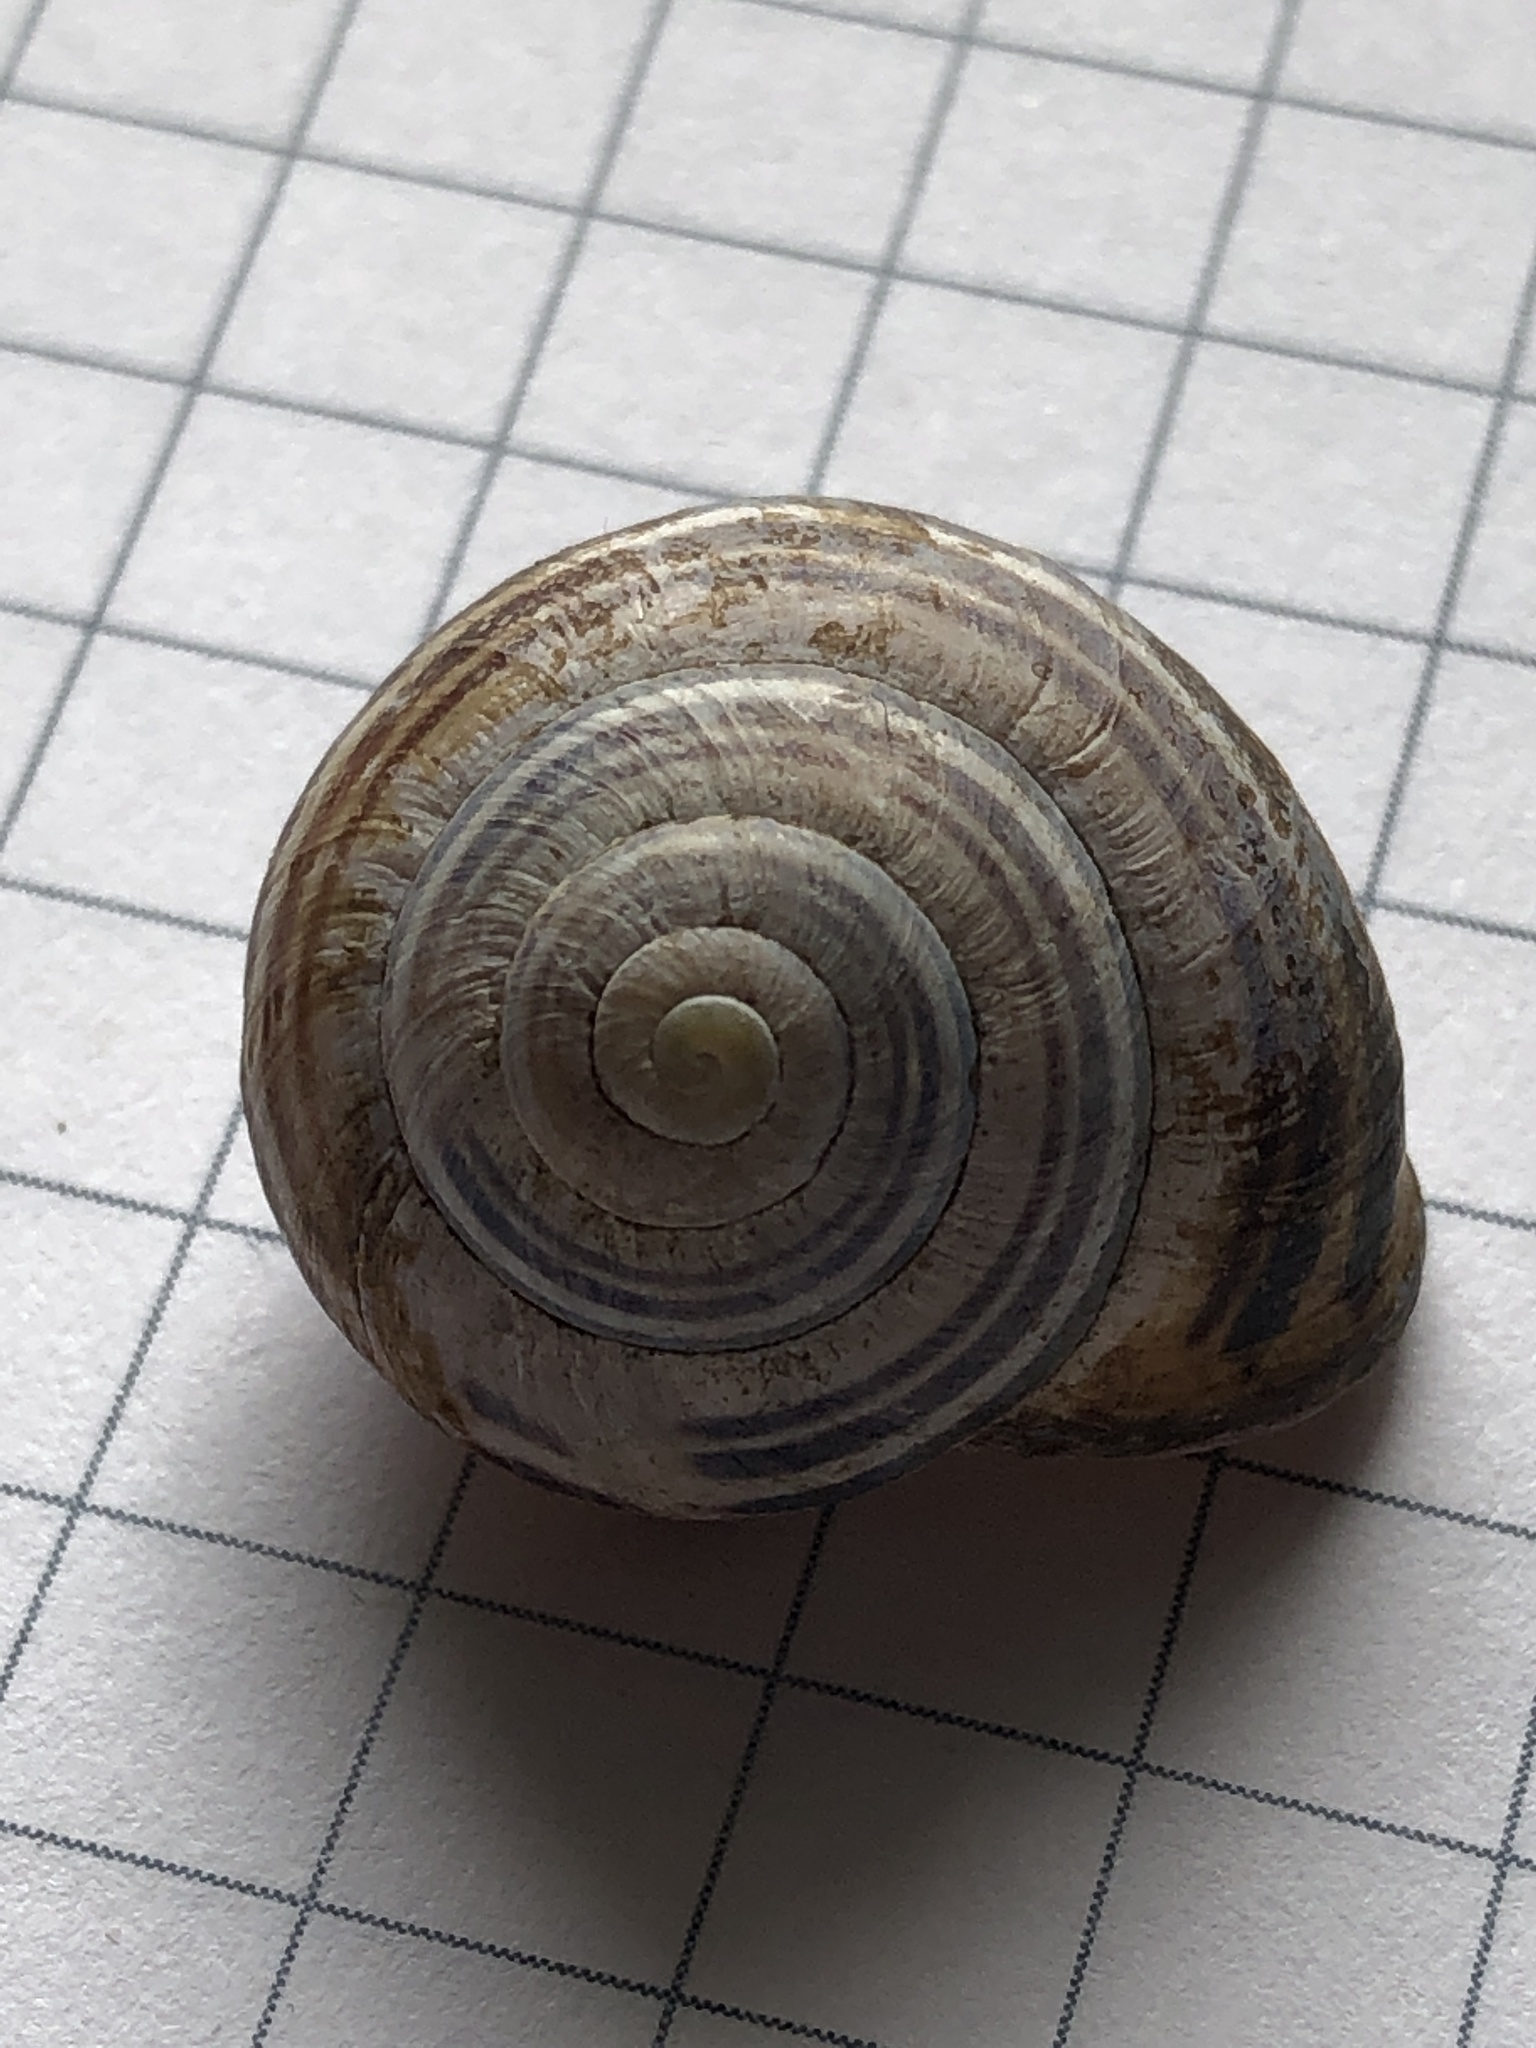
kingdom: Animalia
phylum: Mollusca
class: Gastropoda
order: Stylommatophora
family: Helicidae
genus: Cepaea
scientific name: Cepaea nemoralis
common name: Grovesnail
